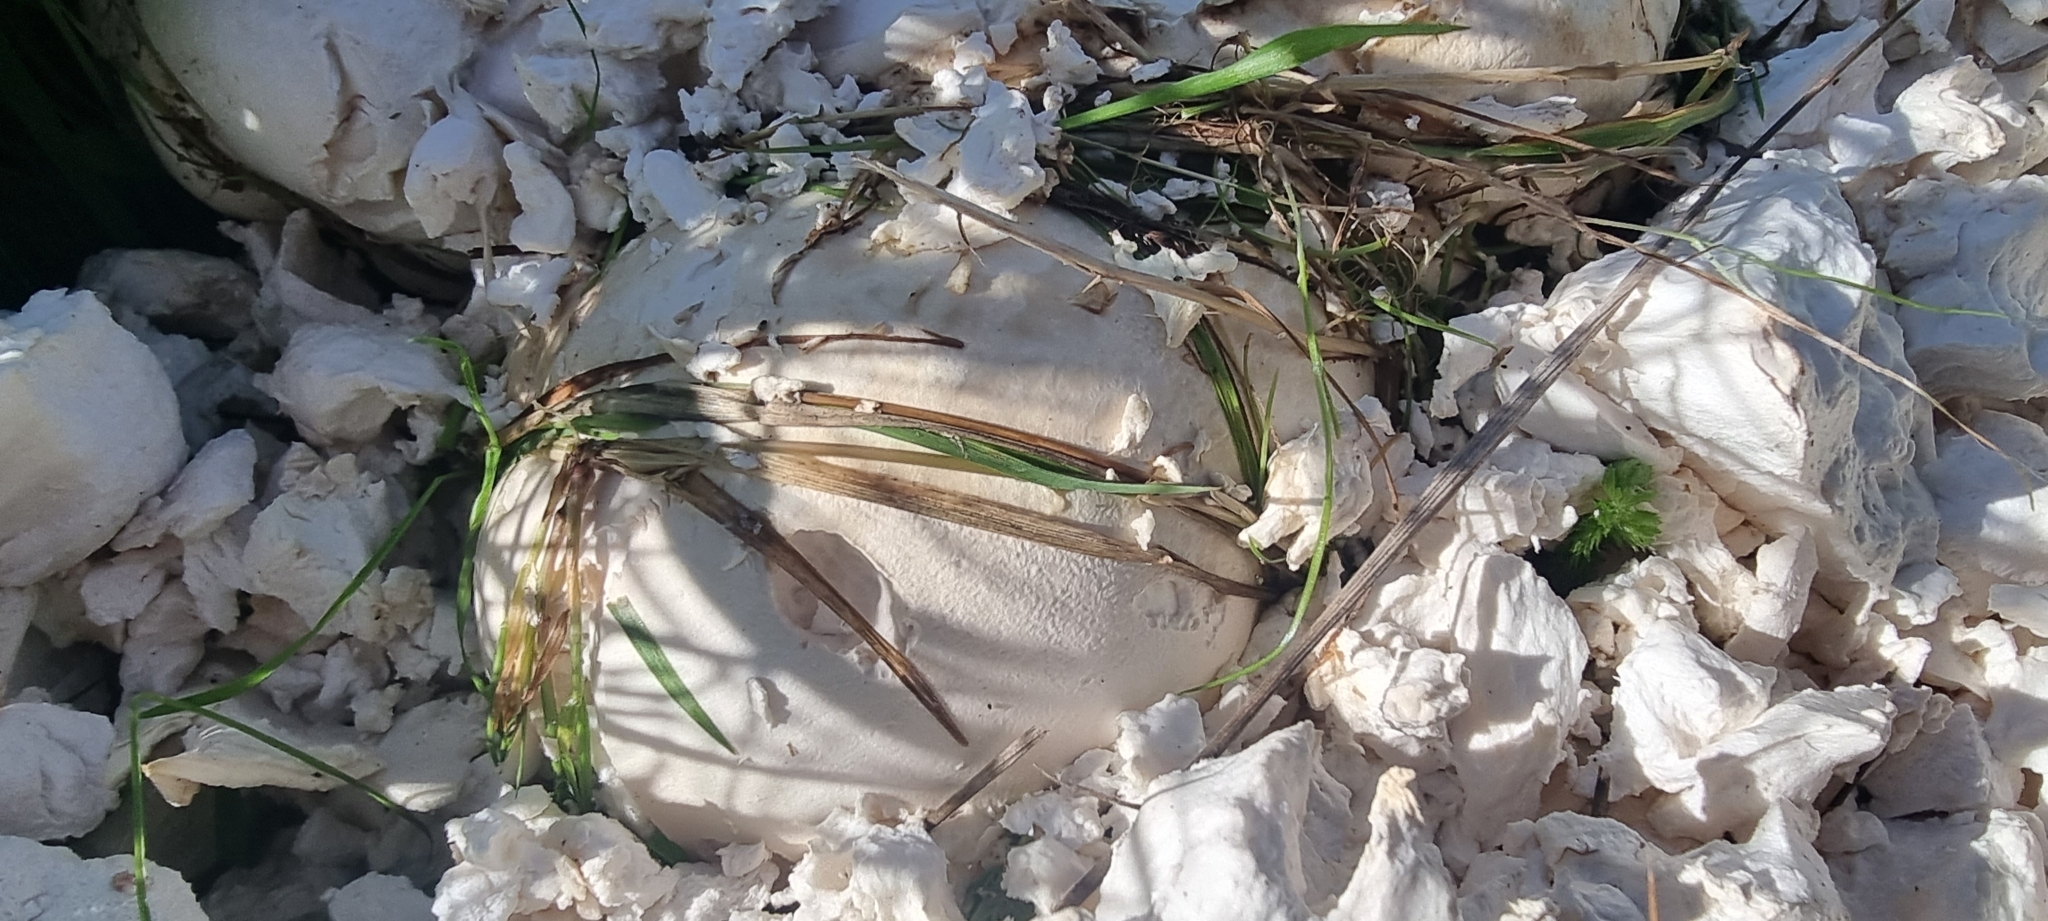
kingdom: Fungi
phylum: Basidiomycota
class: Agaricomycetes
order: Agaricales
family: Lycoperdaceae
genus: Calvatia
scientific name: Calvatia gigantea
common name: Giant puffball
